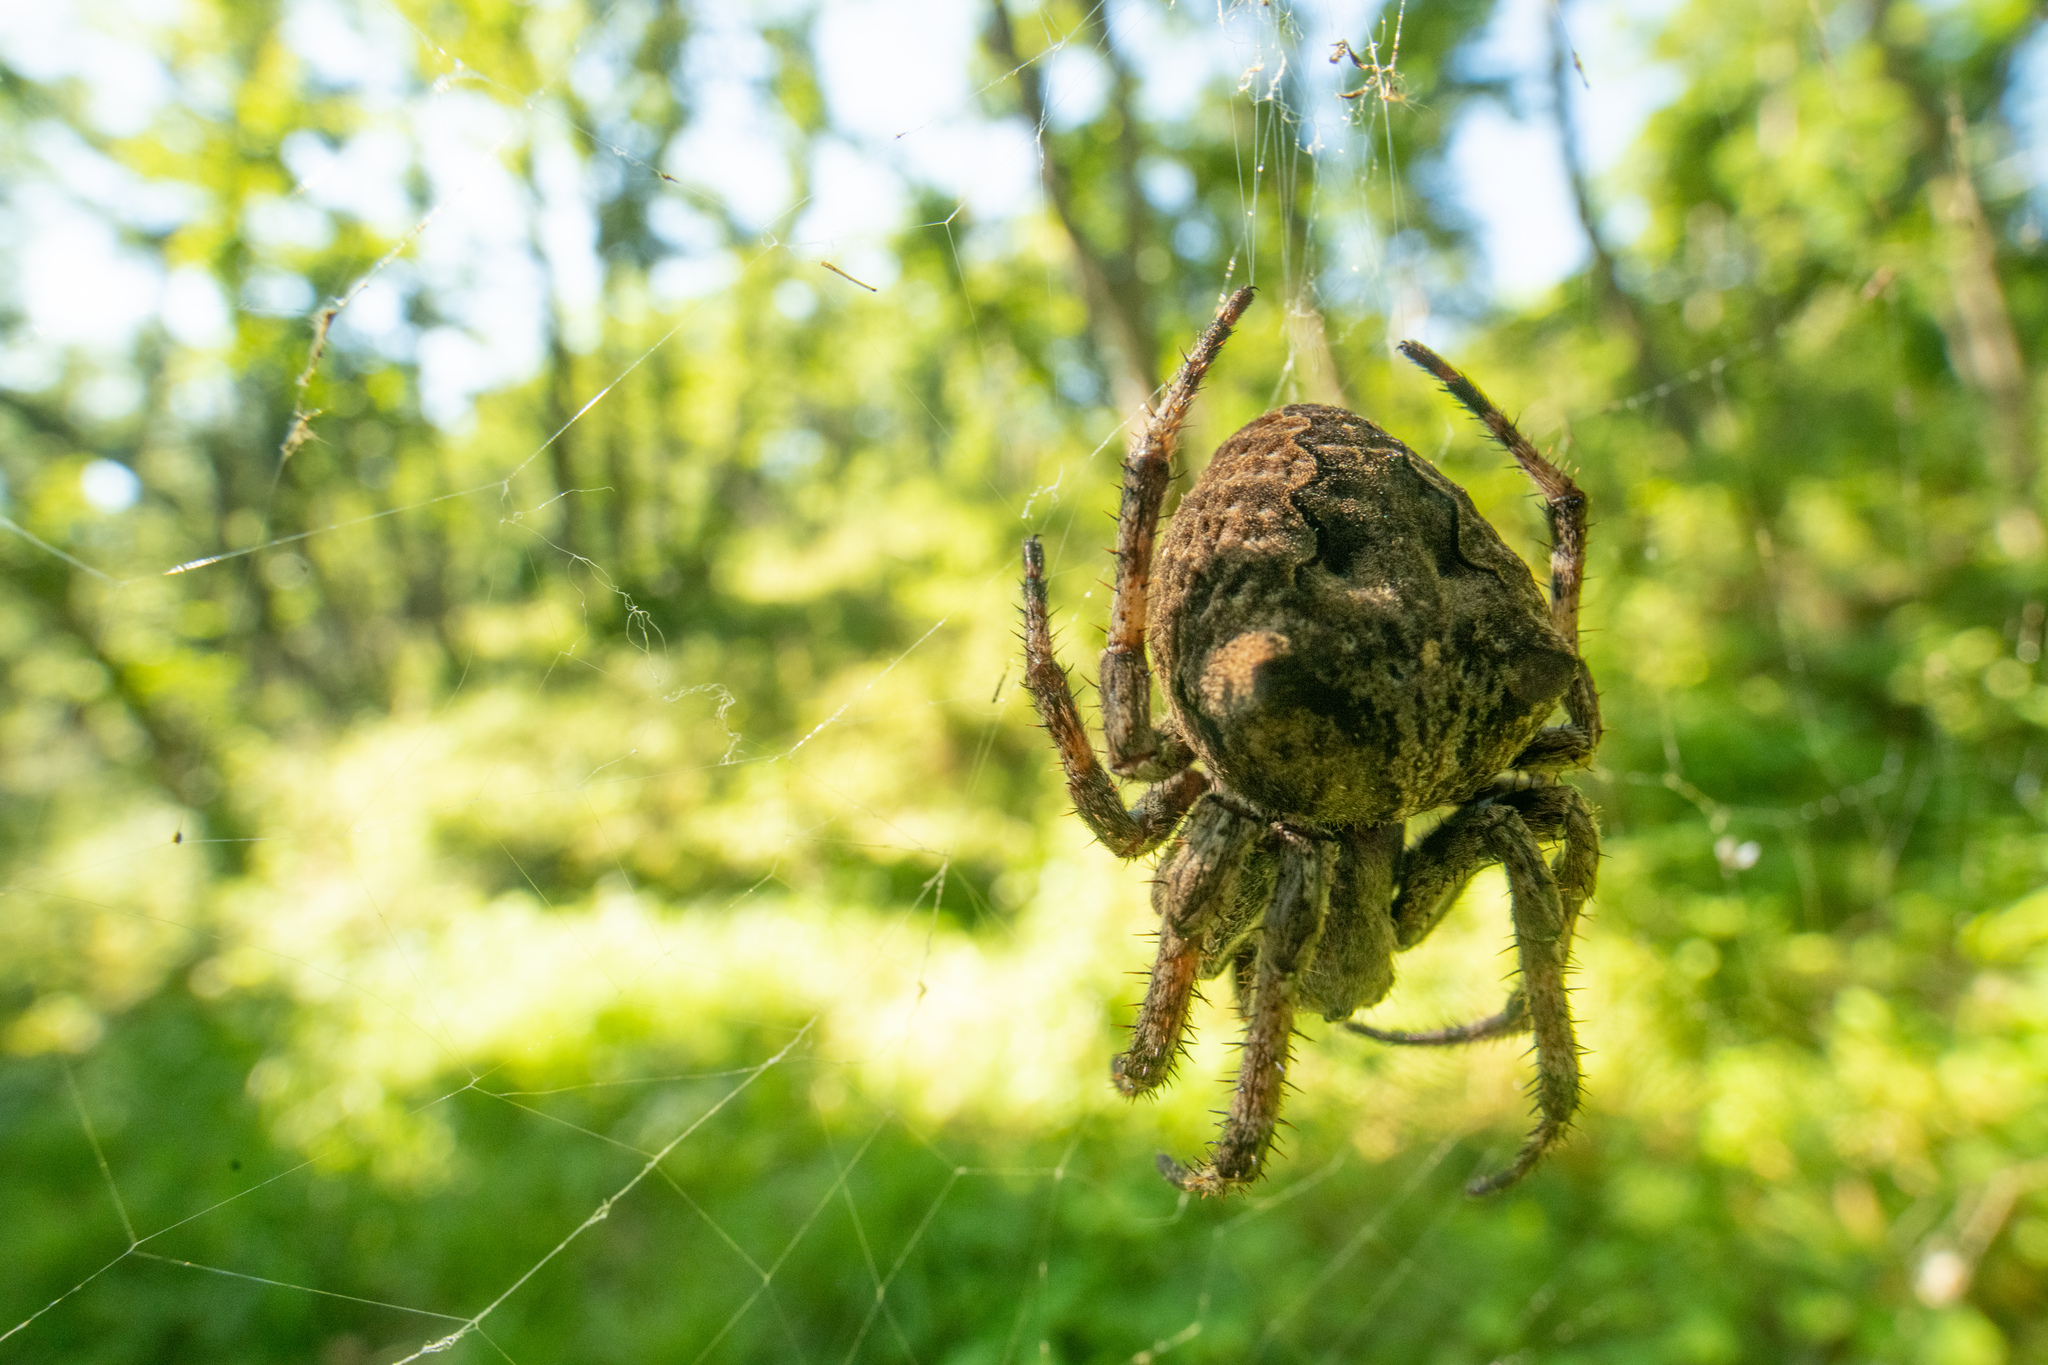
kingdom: Animalia
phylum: Arthropoda
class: Arachnida
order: Araneae
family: Araneidae
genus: Araneus
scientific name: Araneus angulatus
